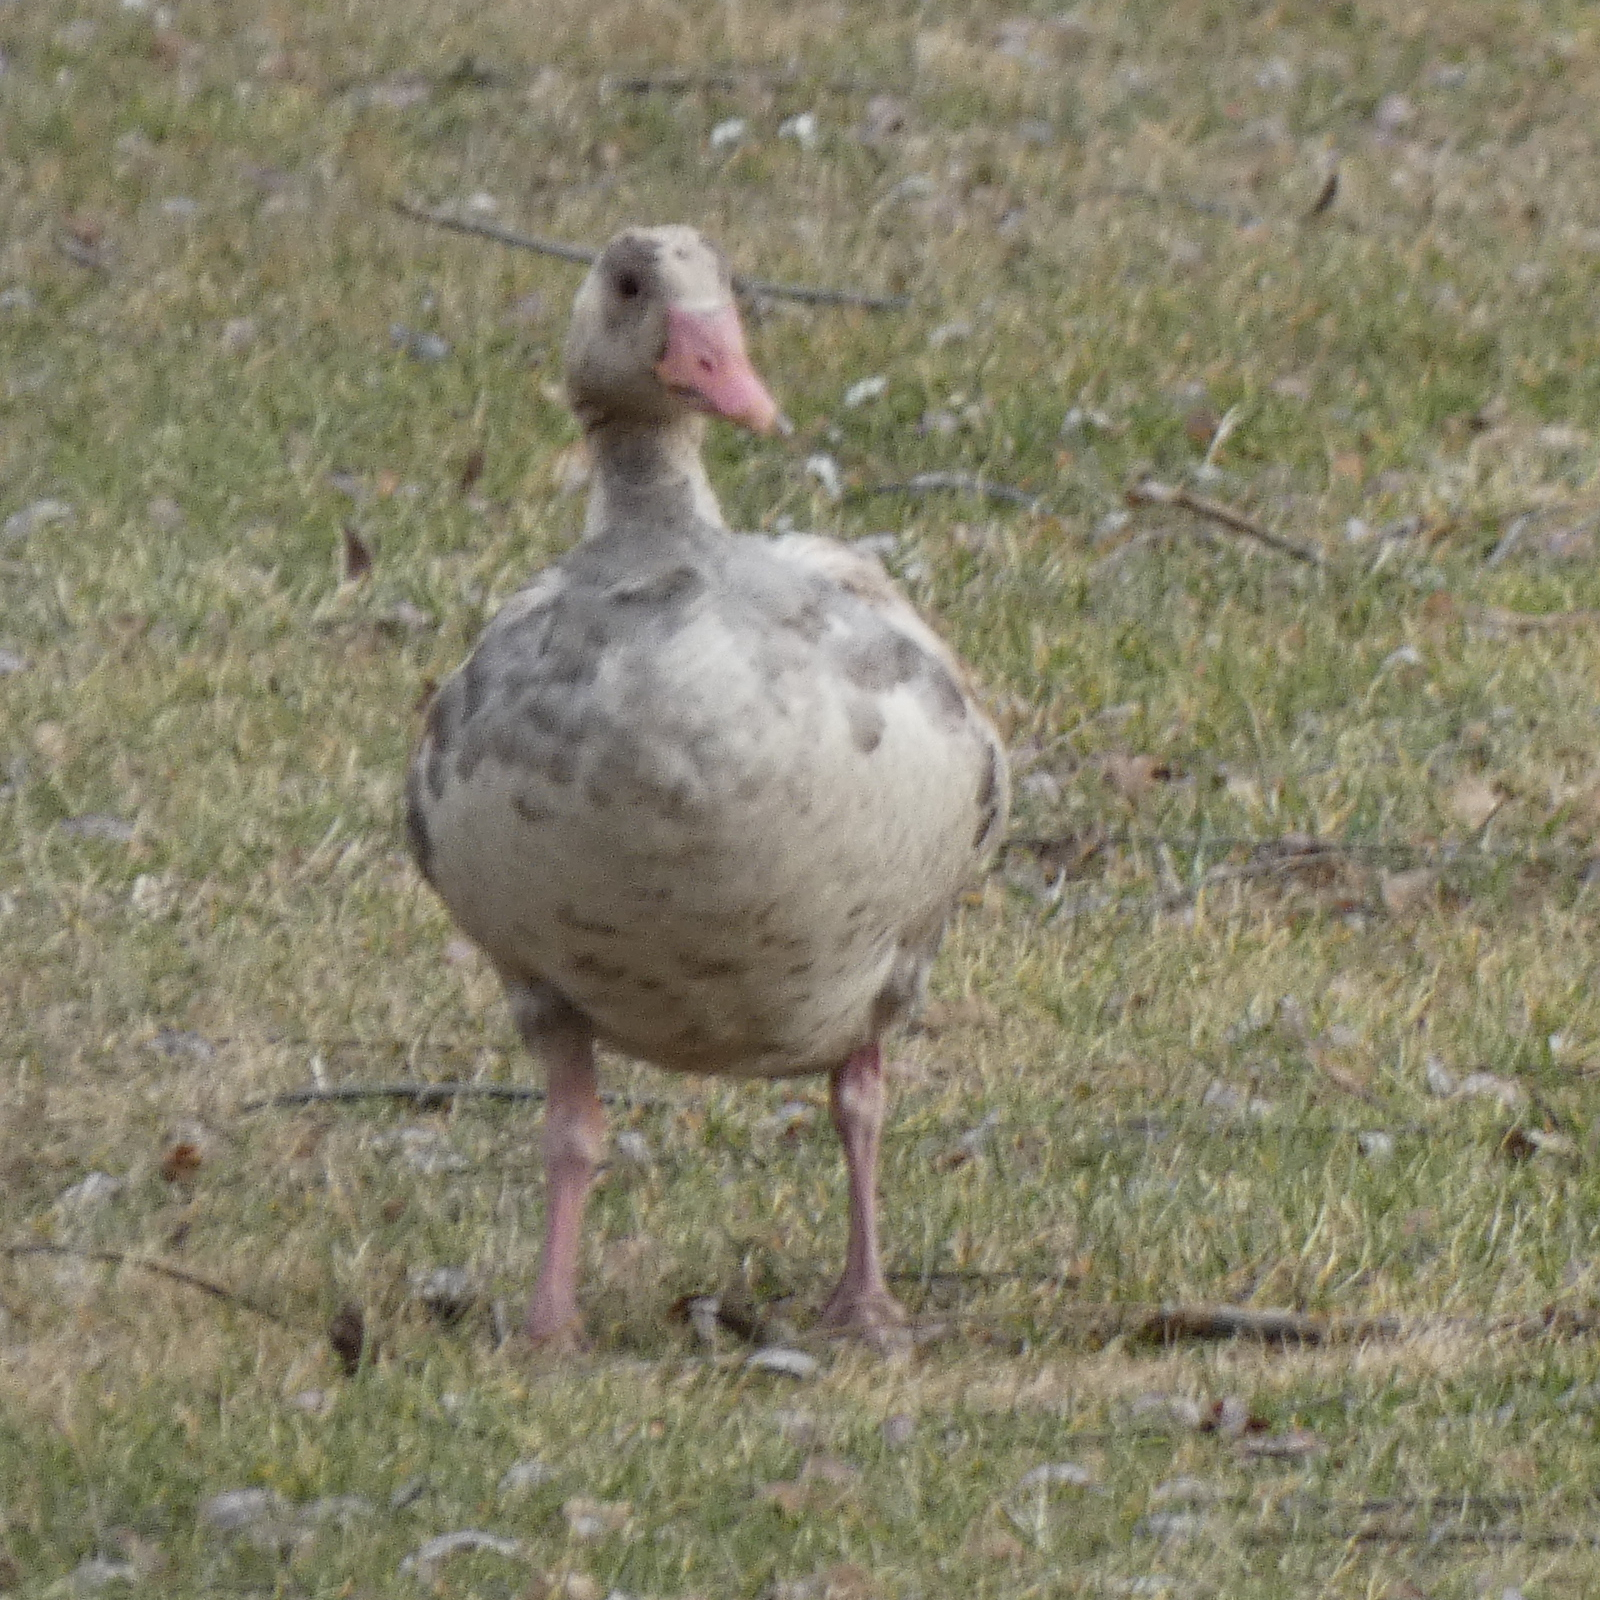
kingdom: Animalia
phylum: Chordata
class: Aves
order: Anseriformes
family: Anatidae
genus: Anser
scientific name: Anser anser
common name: Greylag goose
